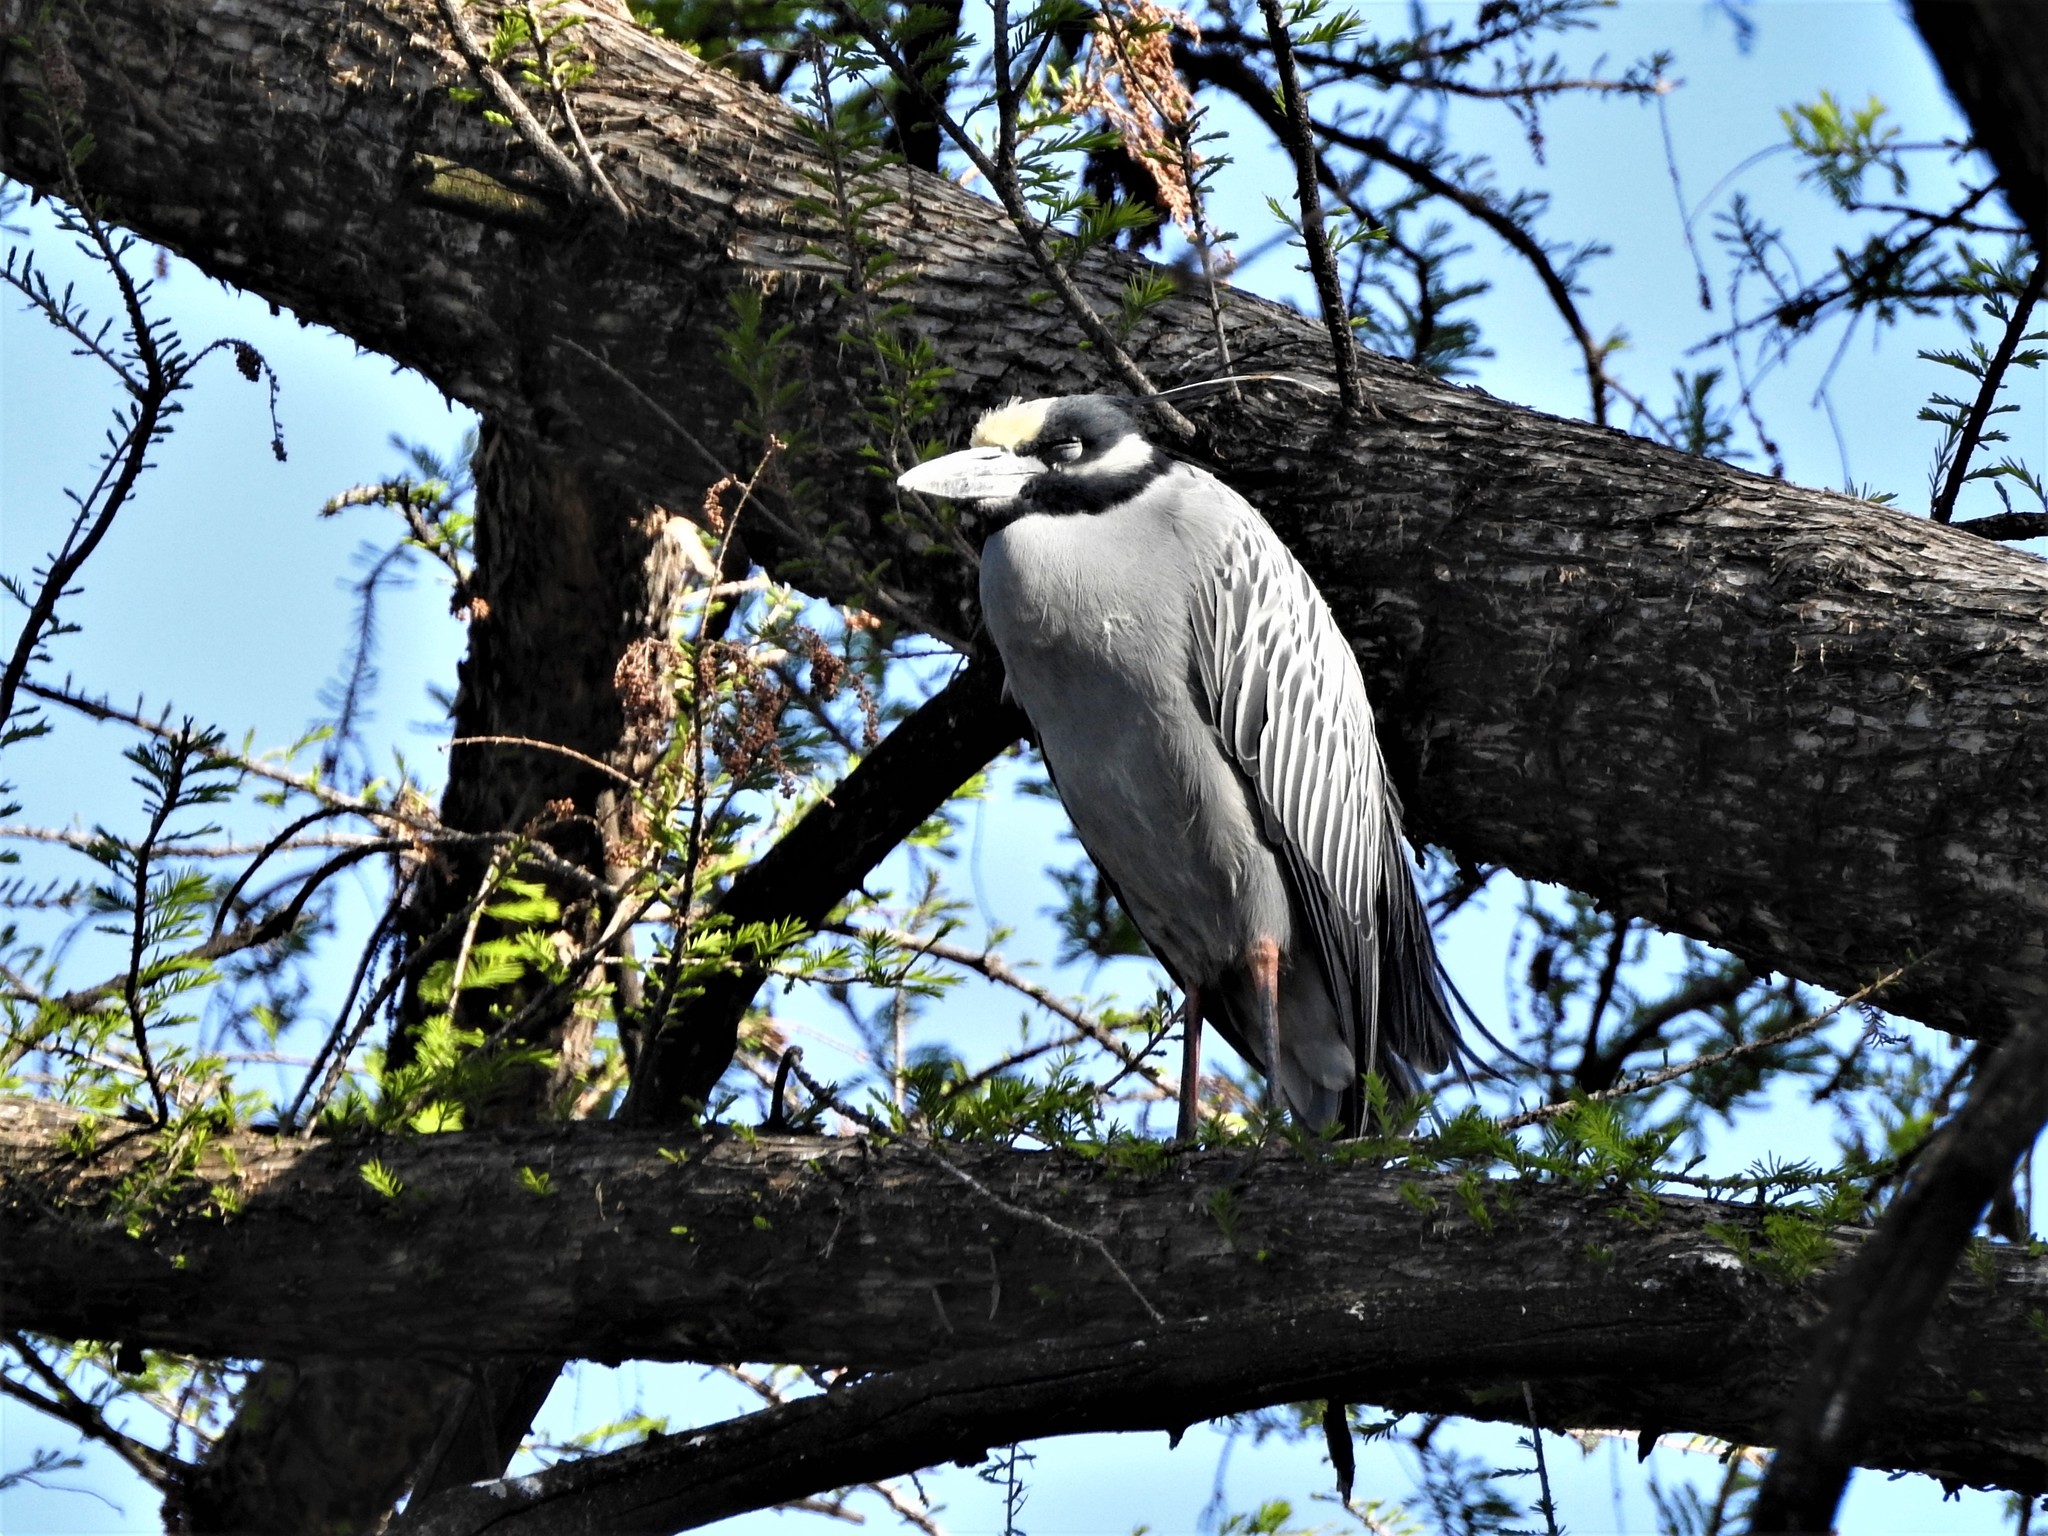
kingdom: Animalia
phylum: Chordata
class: Aves
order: Pelecaniformes
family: Ardeidae
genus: Nyctanassa
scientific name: Nyctanassa violacea
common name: Yellow-crowned night heron
